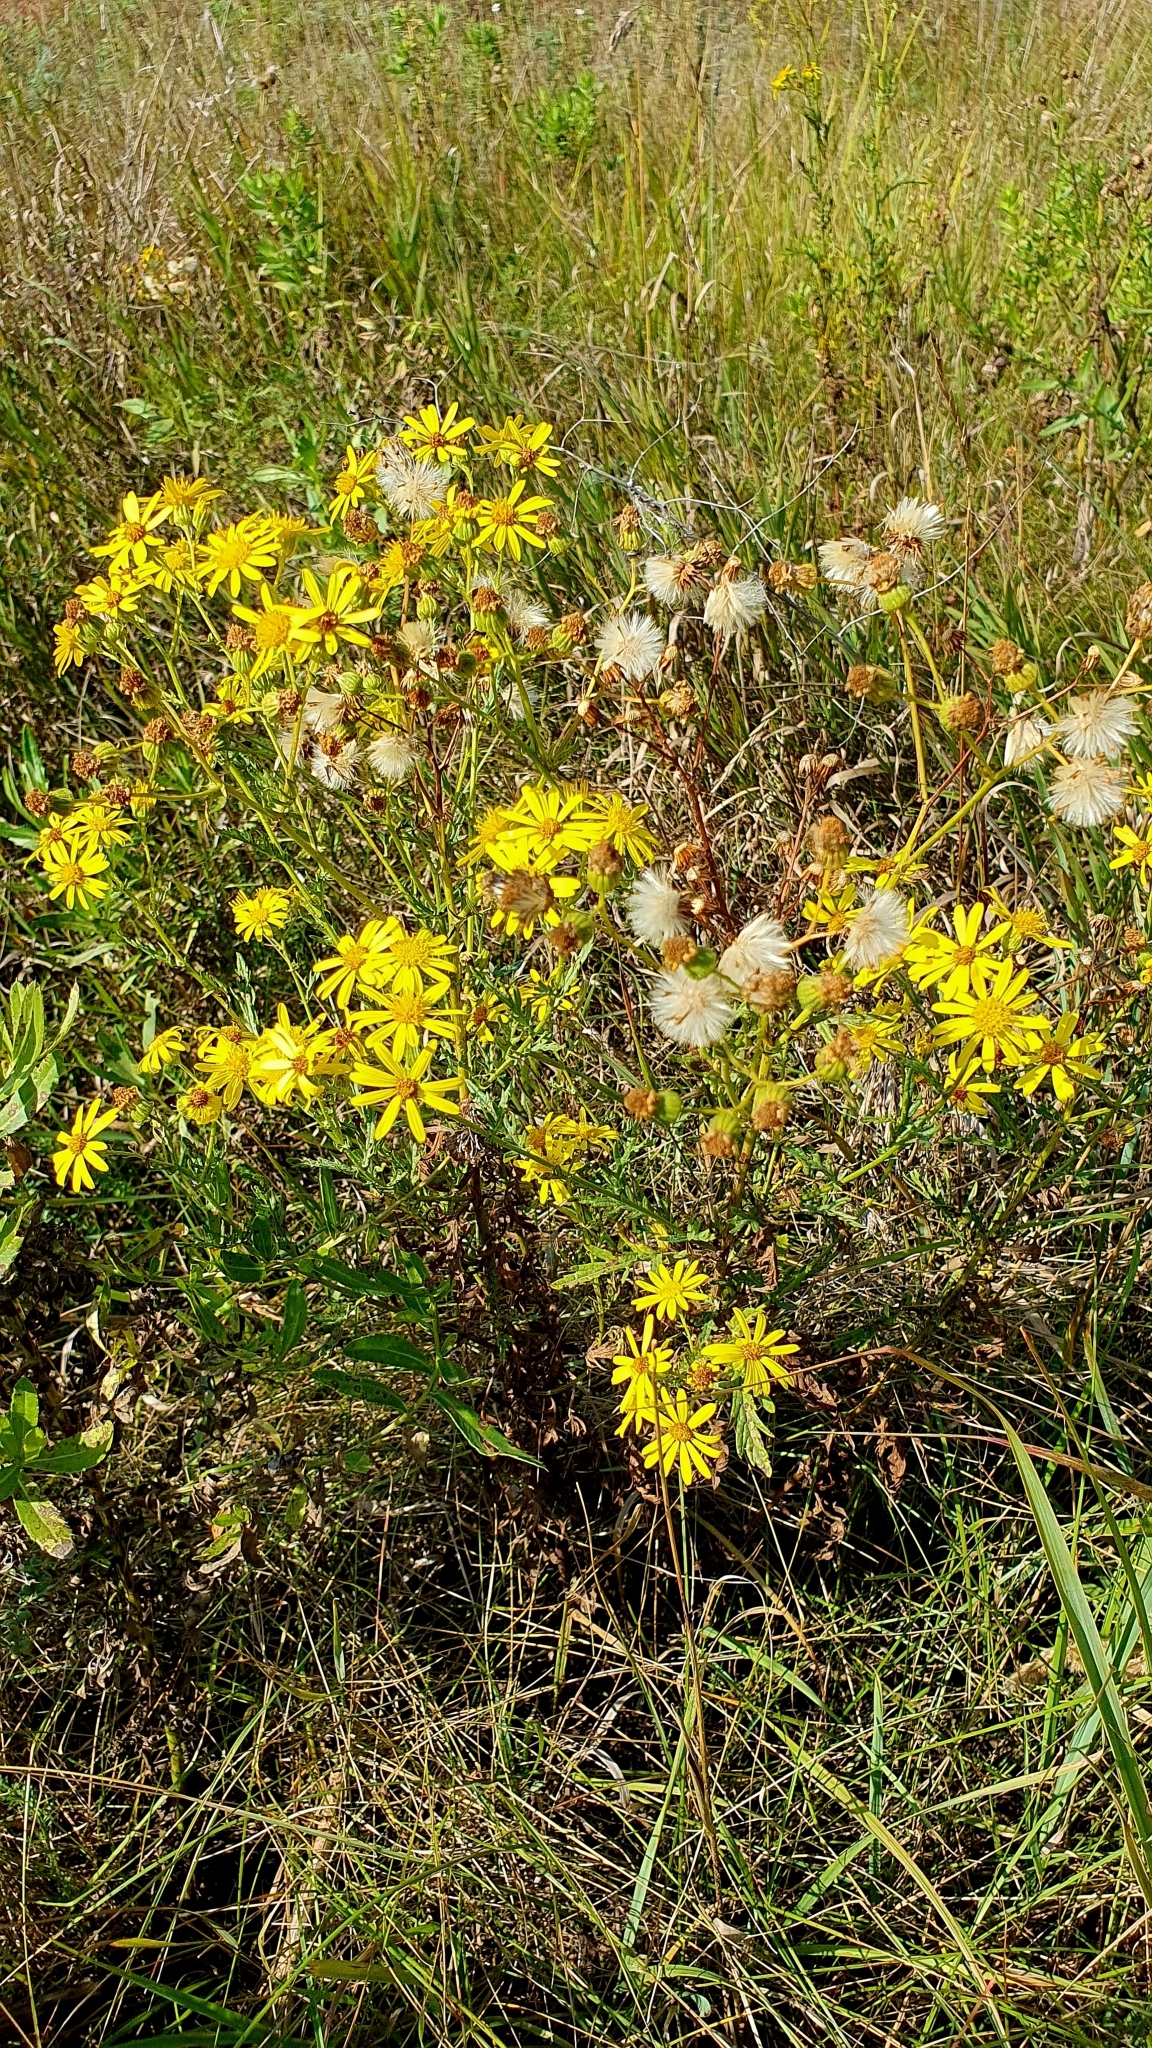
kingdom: Plantae
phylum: Tracheophyta
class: Magnoliopsida
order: Asterales
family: Asteraceae
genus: Jacobaea
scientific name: Jacobaea ferganensis
